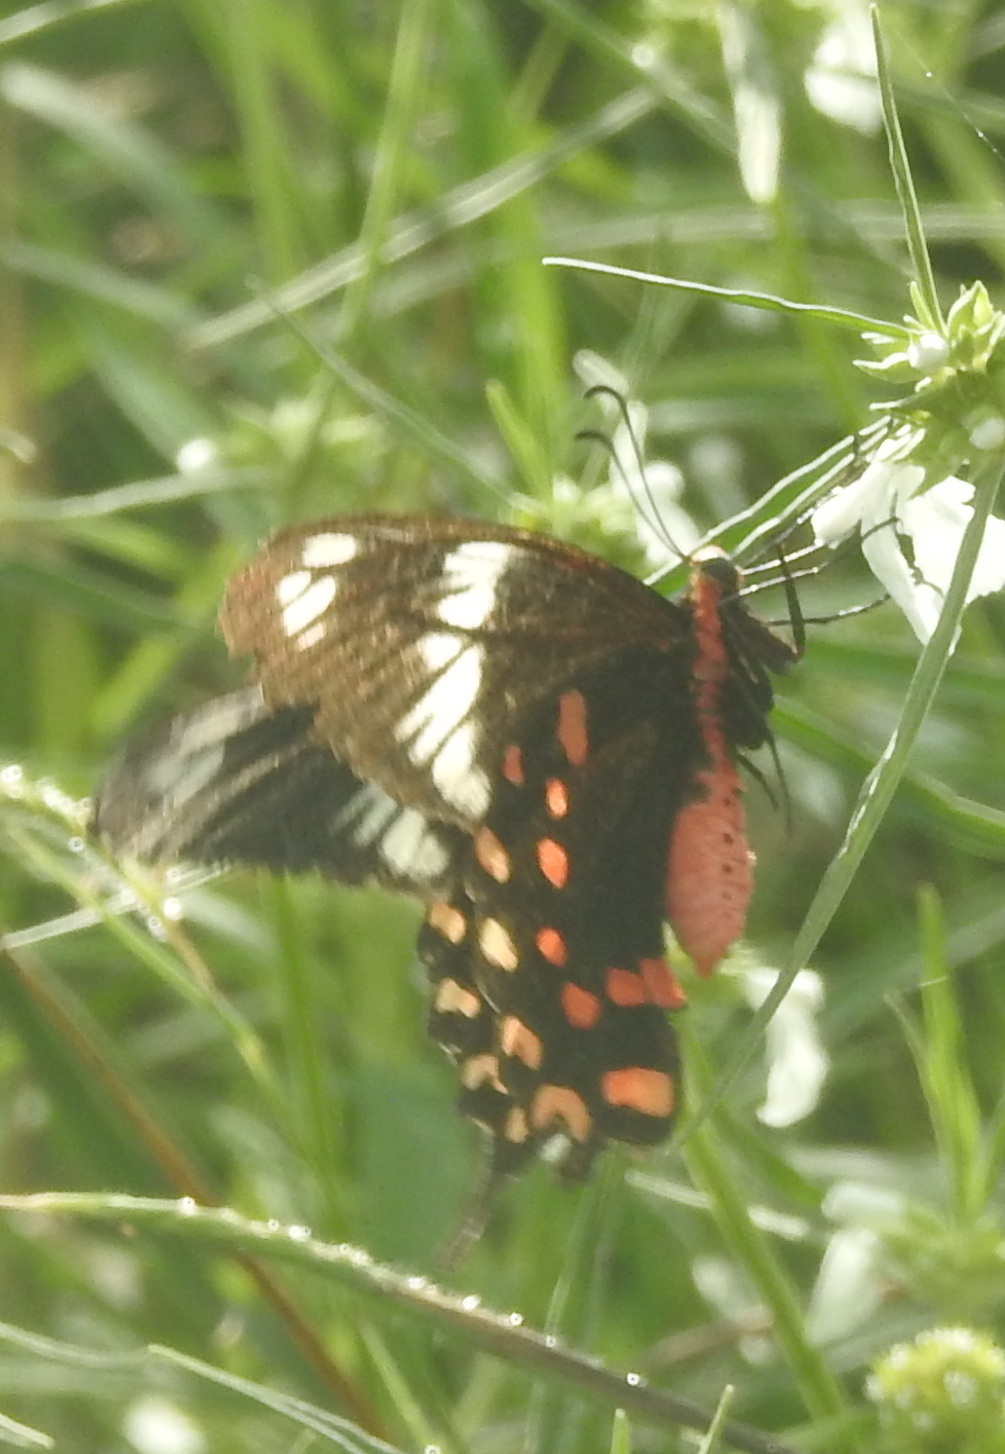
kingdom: Animalia
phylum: Arthropoda
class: Insecta
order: Lepidoptera
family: Papilionidae
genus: Pachliopta
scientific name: Pachliopta hector
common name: Crimson rose
